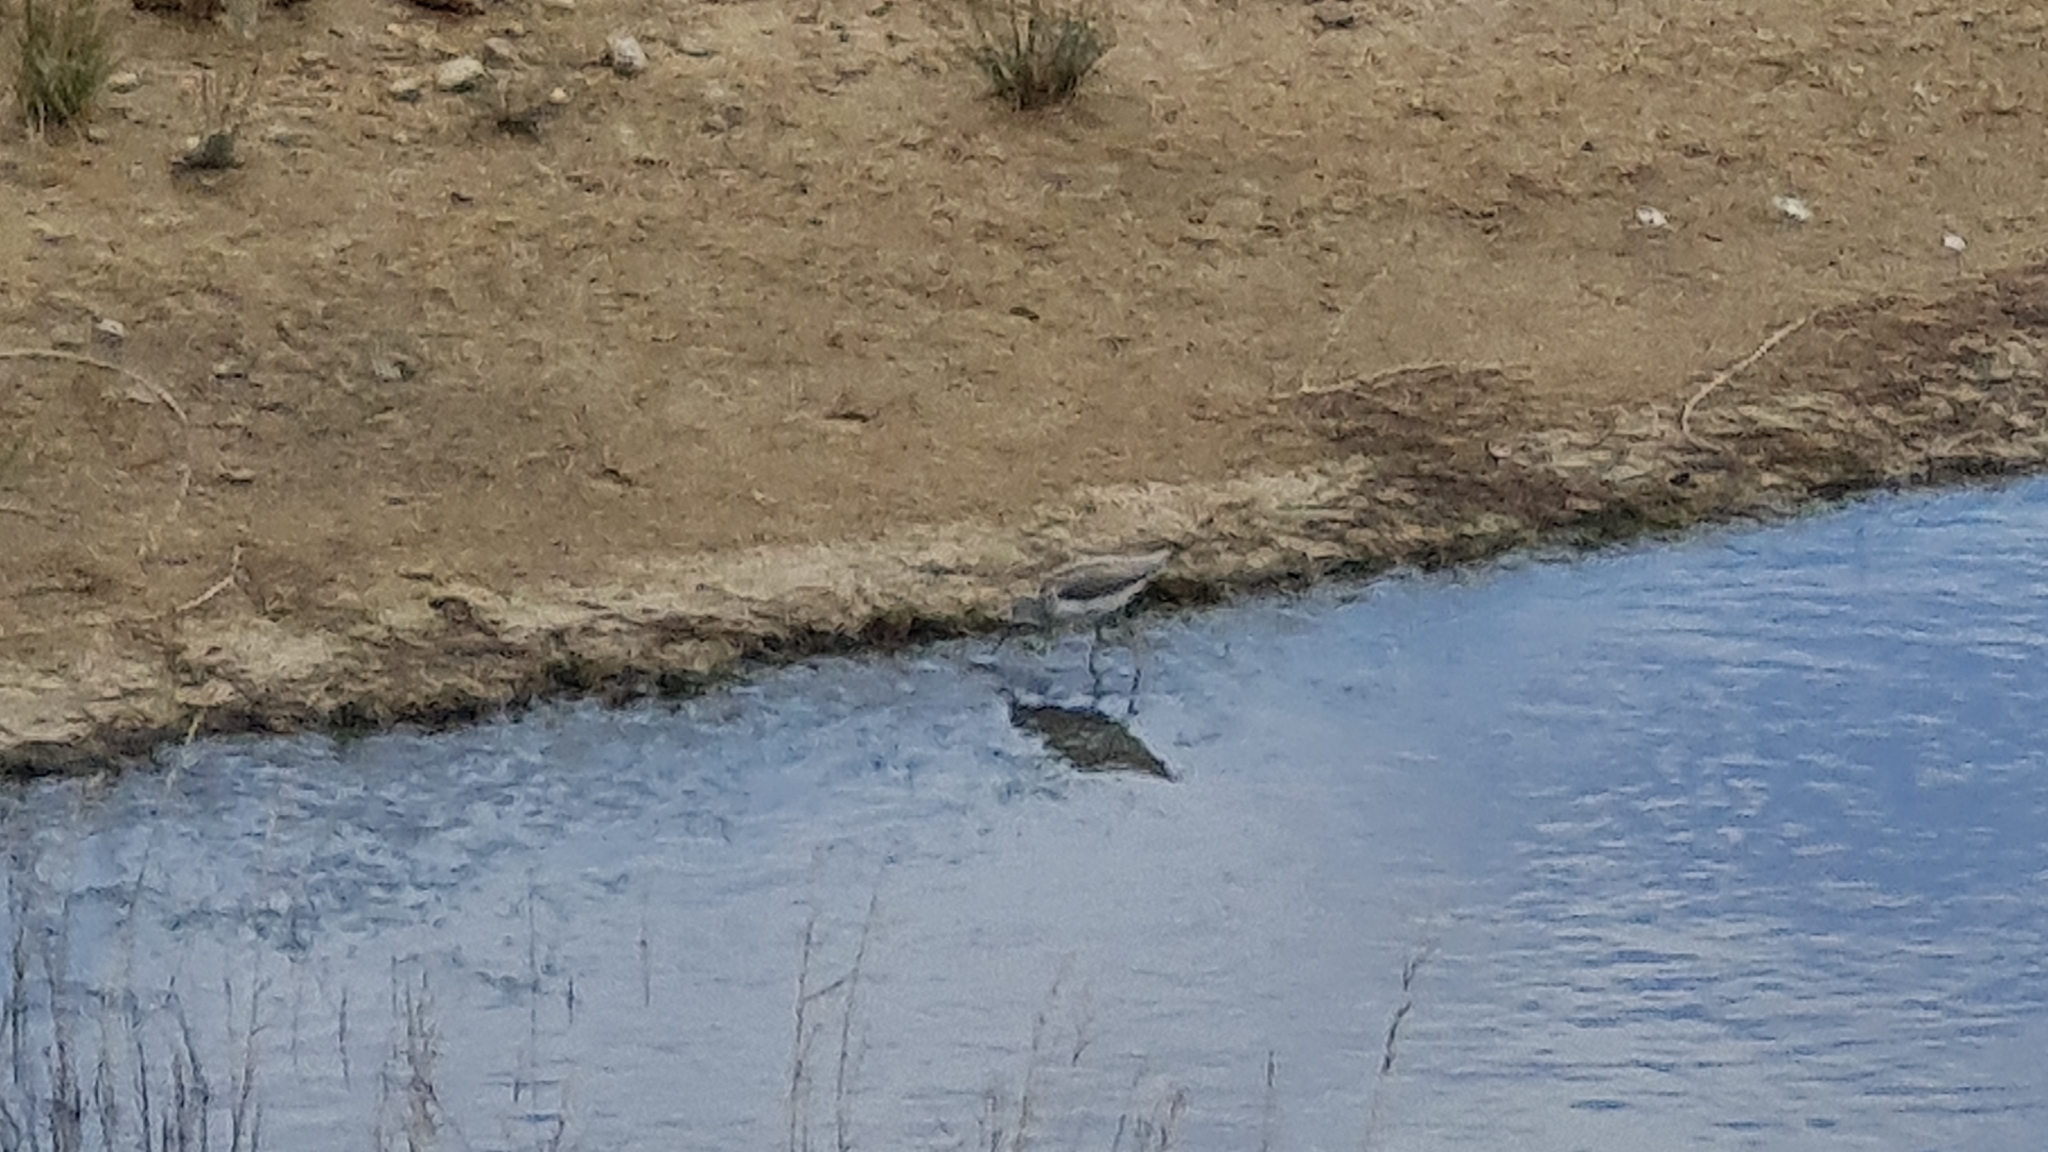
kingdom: Animalia
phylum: Chordata
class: Aves
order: Charadriiformes
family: Scolopacidae
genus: Tringa
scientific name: Tringa nebularia
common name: Common greenshank
